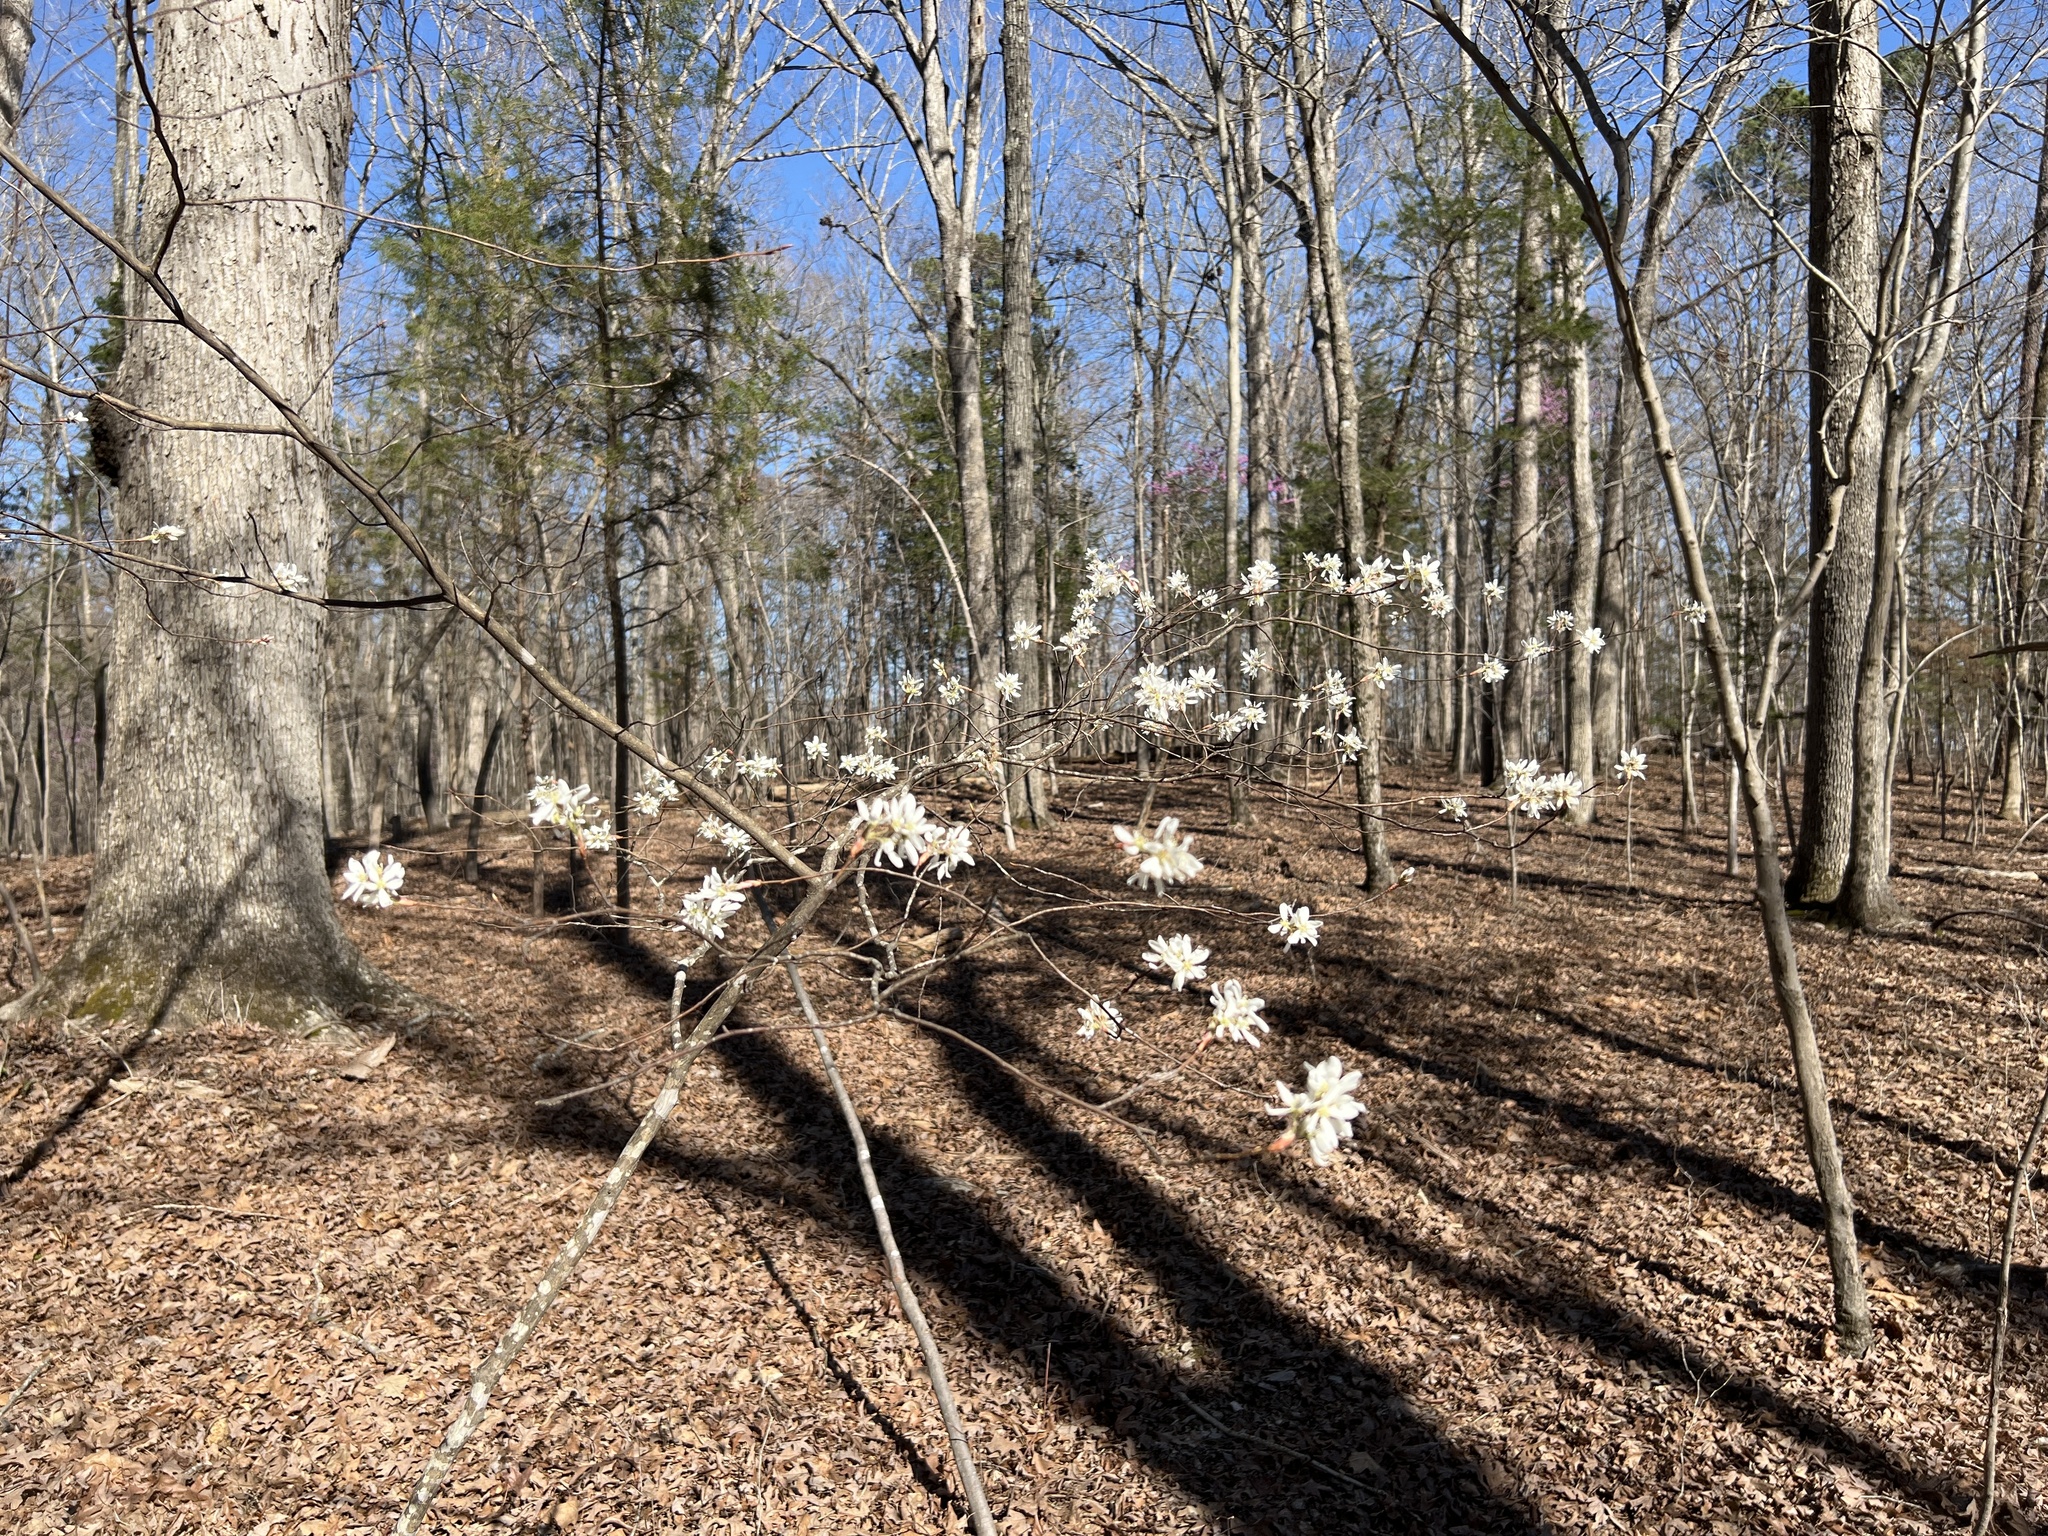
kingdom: Plantae
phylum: Tracheophyta
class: Magnoliopsida
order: Rosales
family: Rosaceae
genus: Amelanchier
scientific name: Amelanchier arborea
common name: Downy serviceberry
